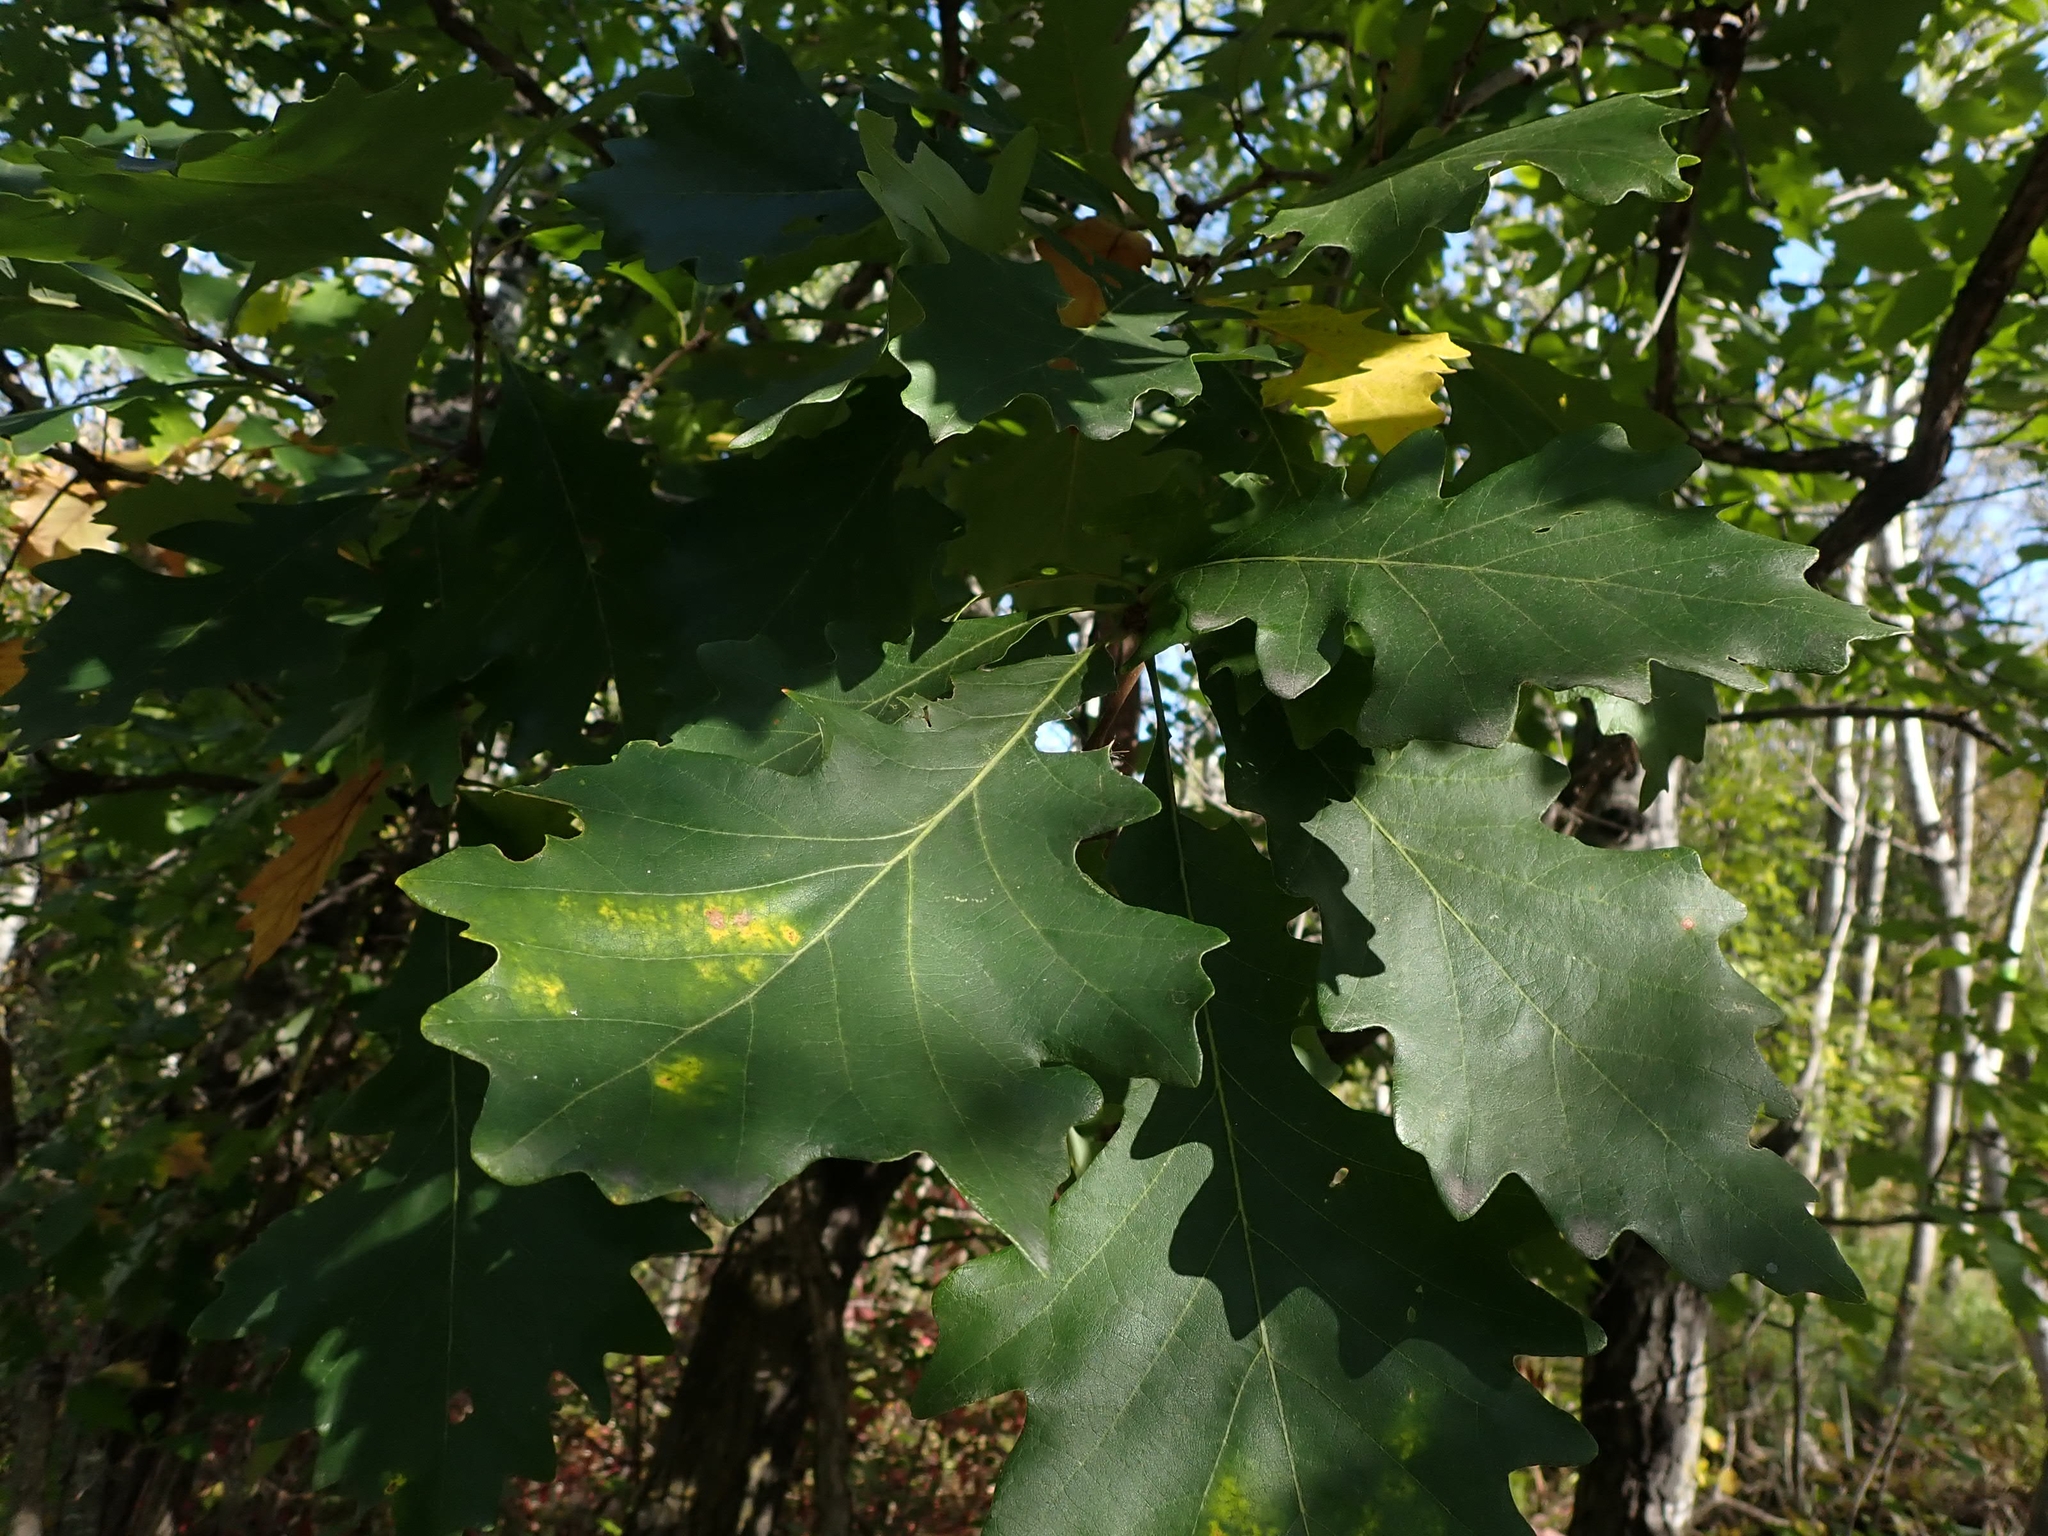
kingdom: Plantae
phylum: Tracheophyta
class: Magnoliopsida
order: Fagales
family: Fagaceae
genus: Quercus
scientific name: Quercus macrocarpa
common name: Bur oak
